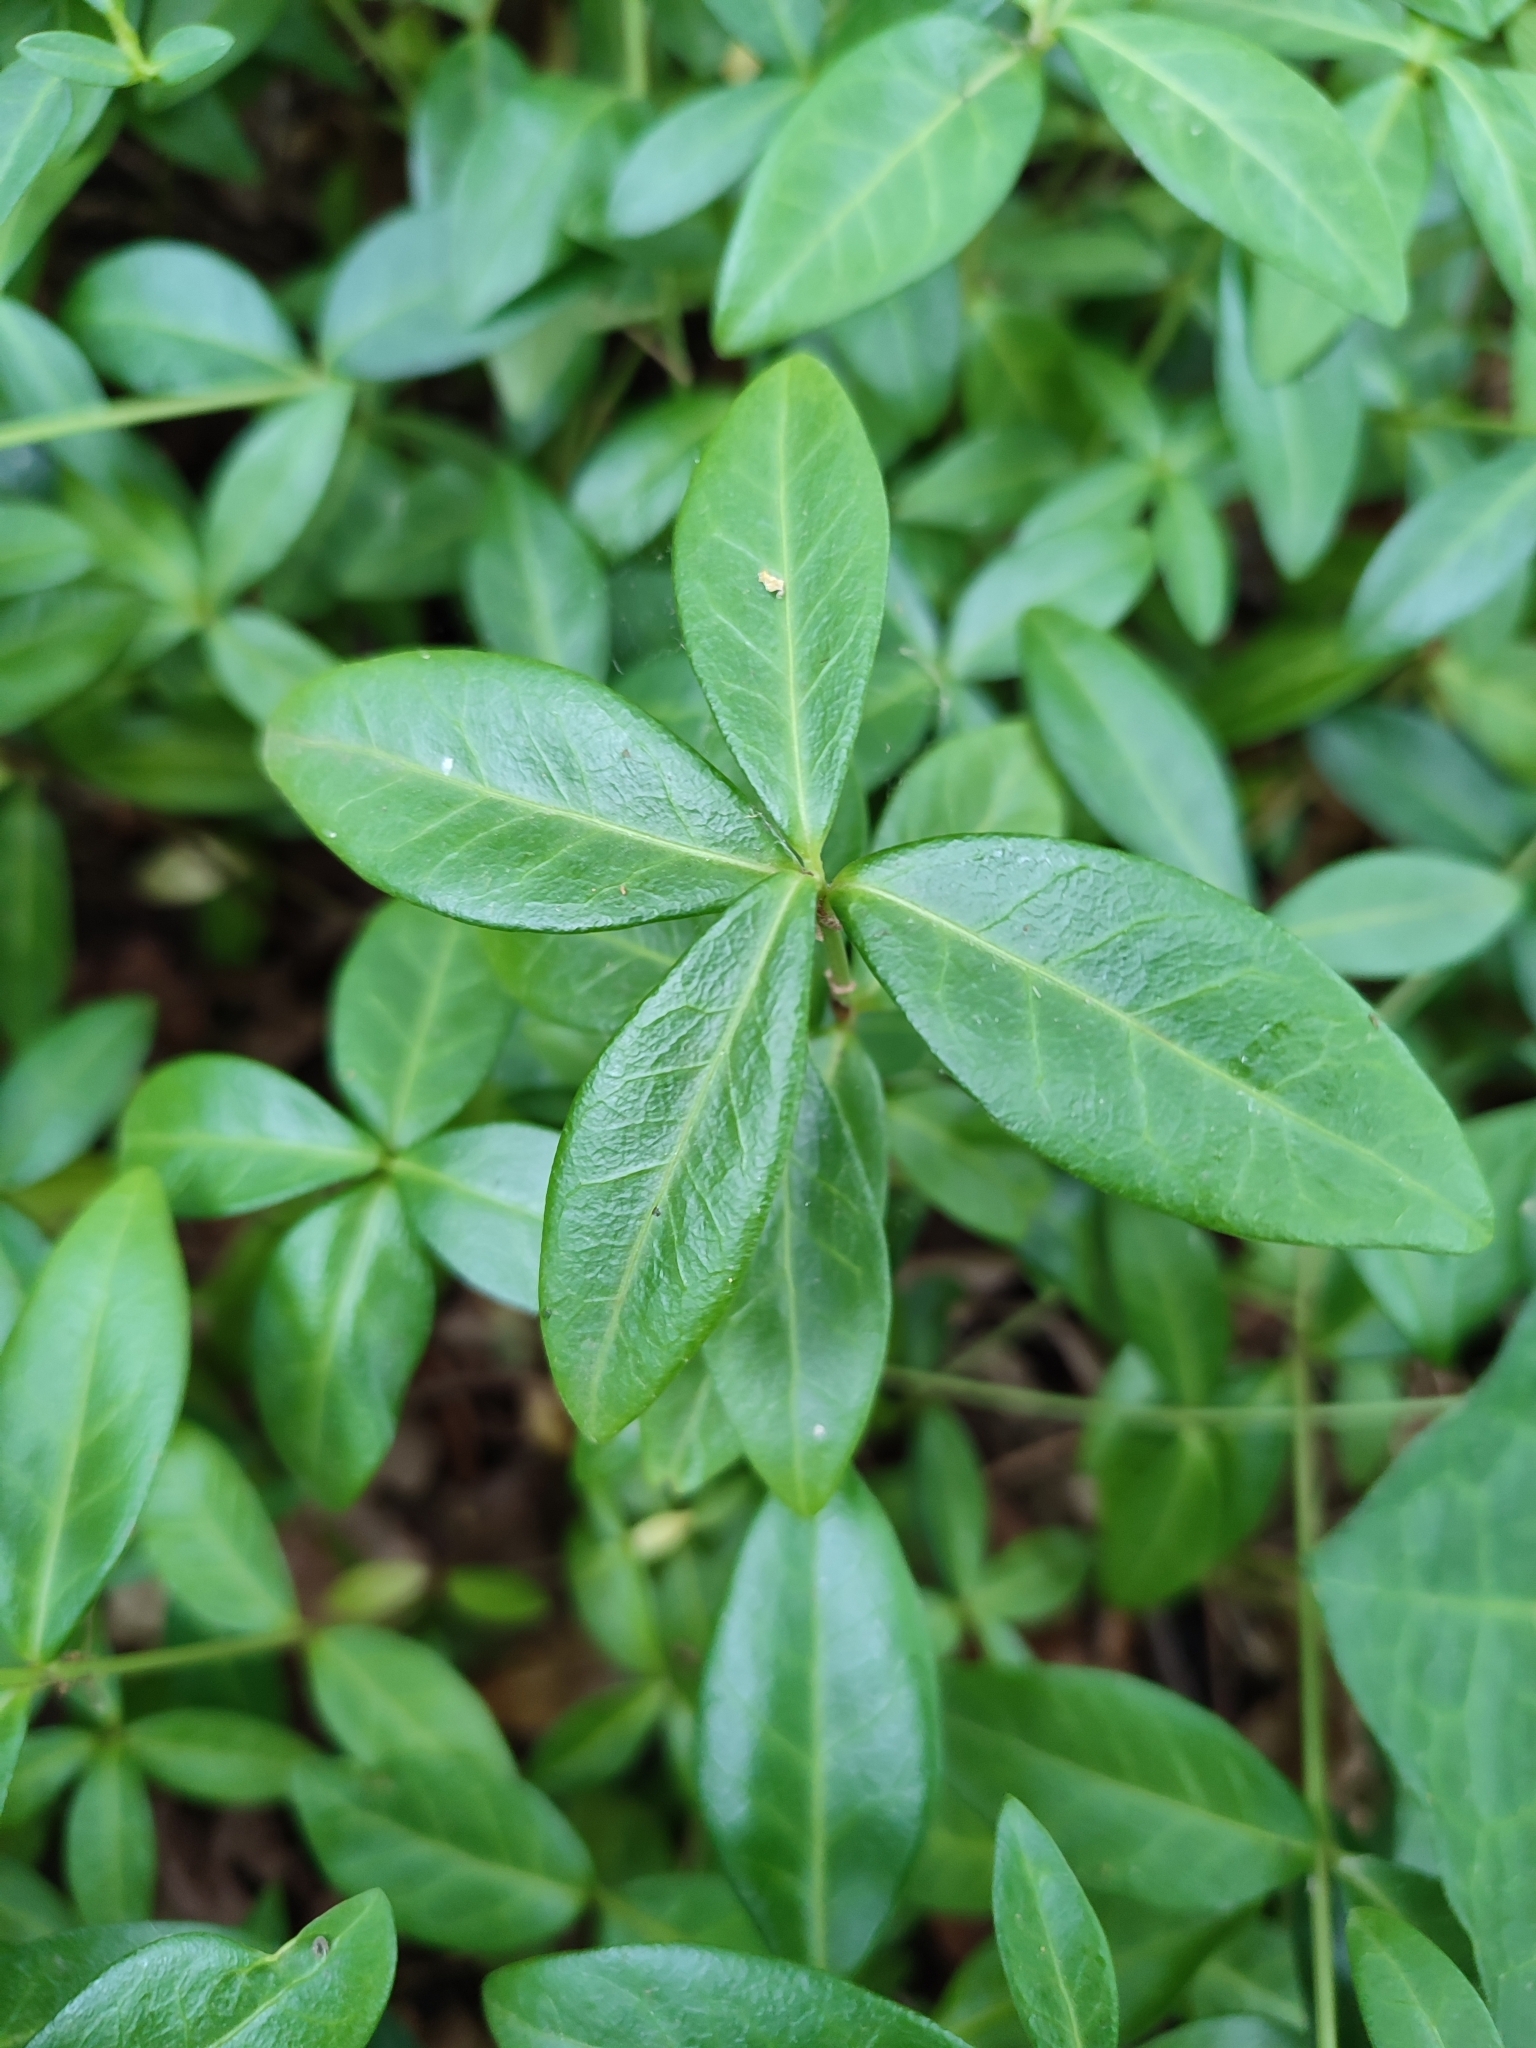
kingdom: Plantae
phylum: Tracheophyta
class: Magnoliopsida
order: Gentianales
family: Apocynaceae
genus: Vinca
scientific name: Vinca minor
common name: Lesser periwinkle
